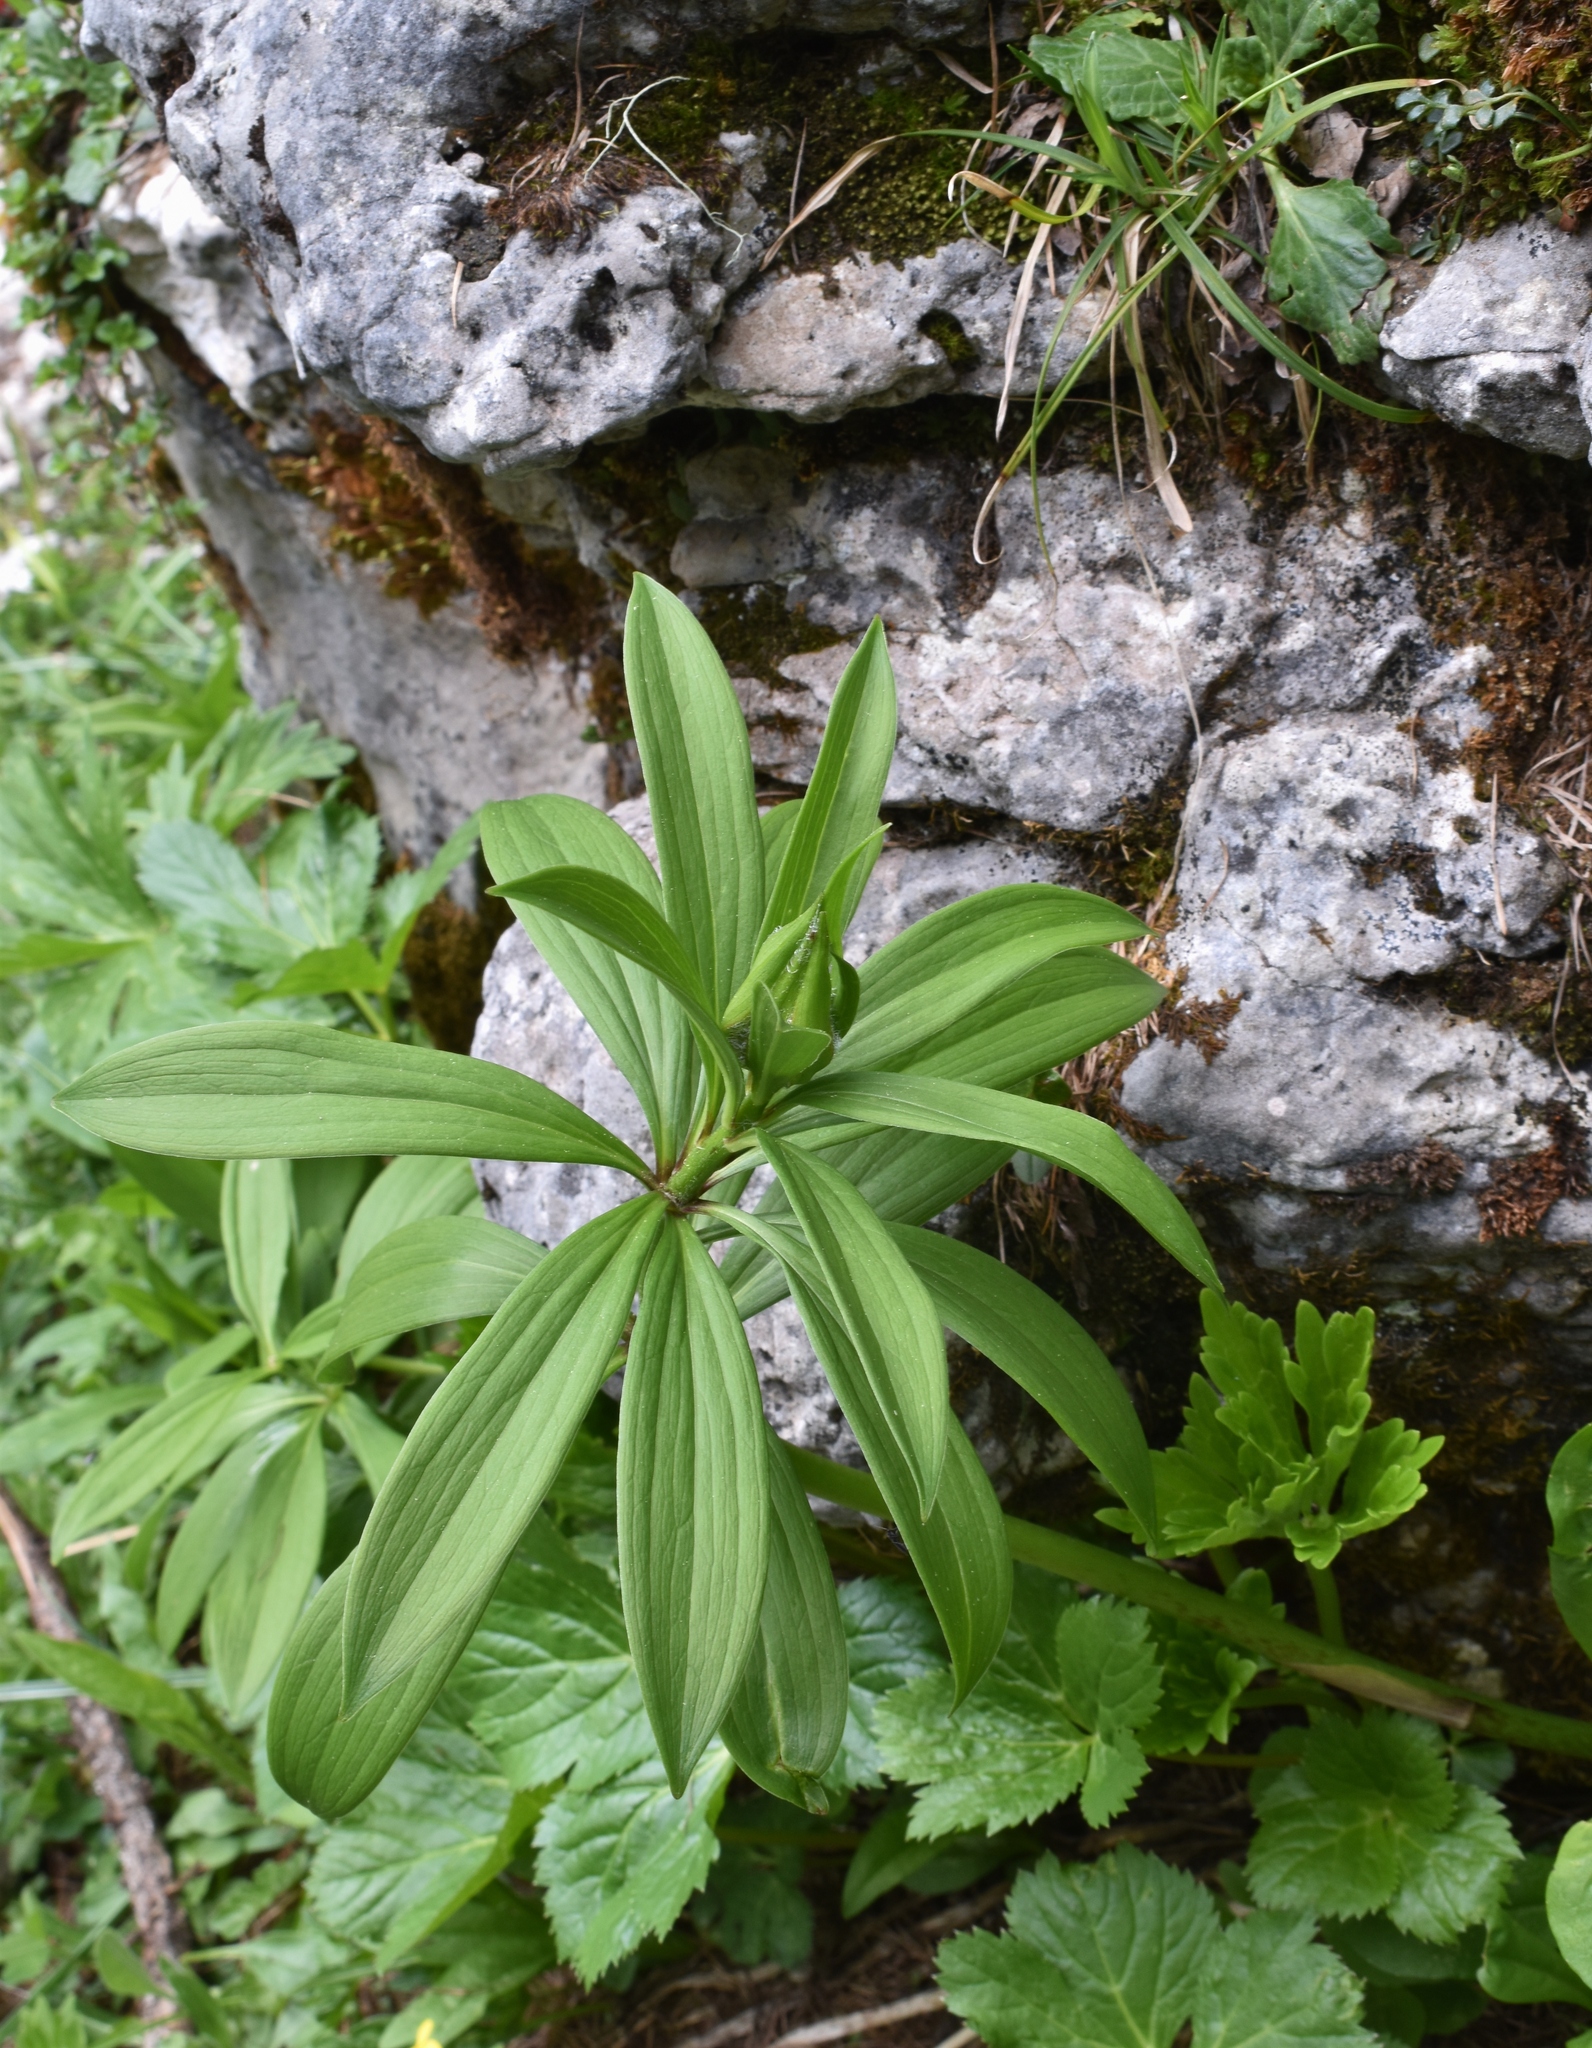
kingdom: Plantae
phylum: Tracheophyta
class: Liliopsida
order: Liliales
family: Liliaceae
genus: Lilium
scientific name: Lilium martagon
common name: Martagon lily
